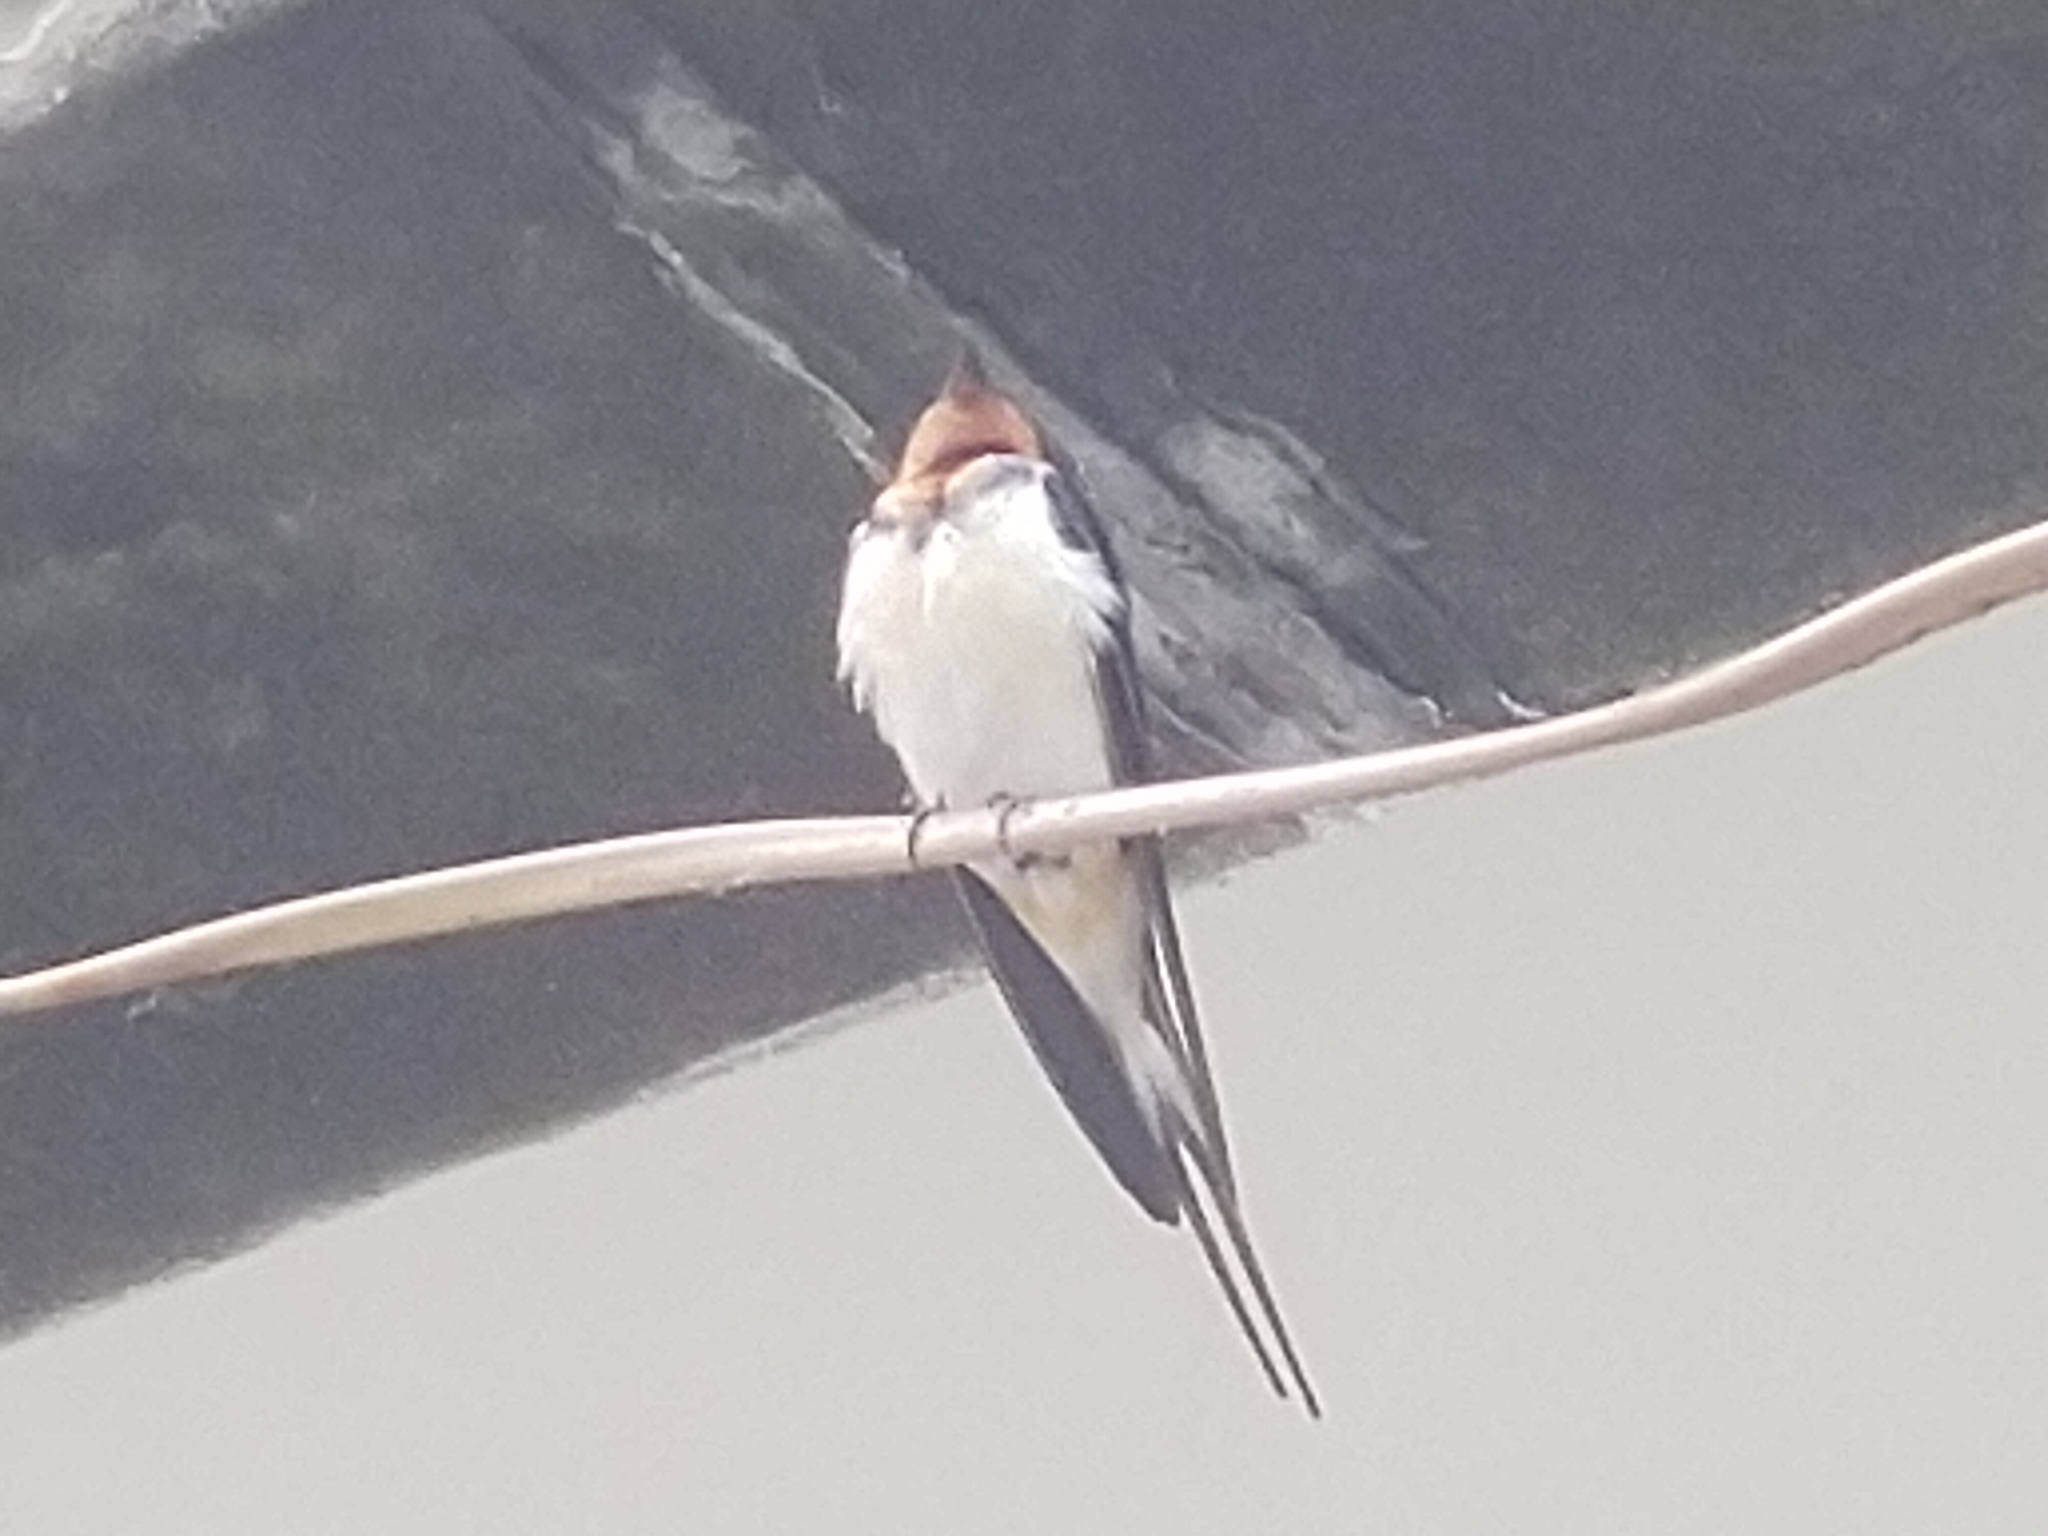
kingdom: Animalia
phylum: Chordata
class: Aves
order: Passeriformes
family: Hirundinidae
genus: Hirundo
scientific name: Hirundo rustica
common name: Barn swallow
